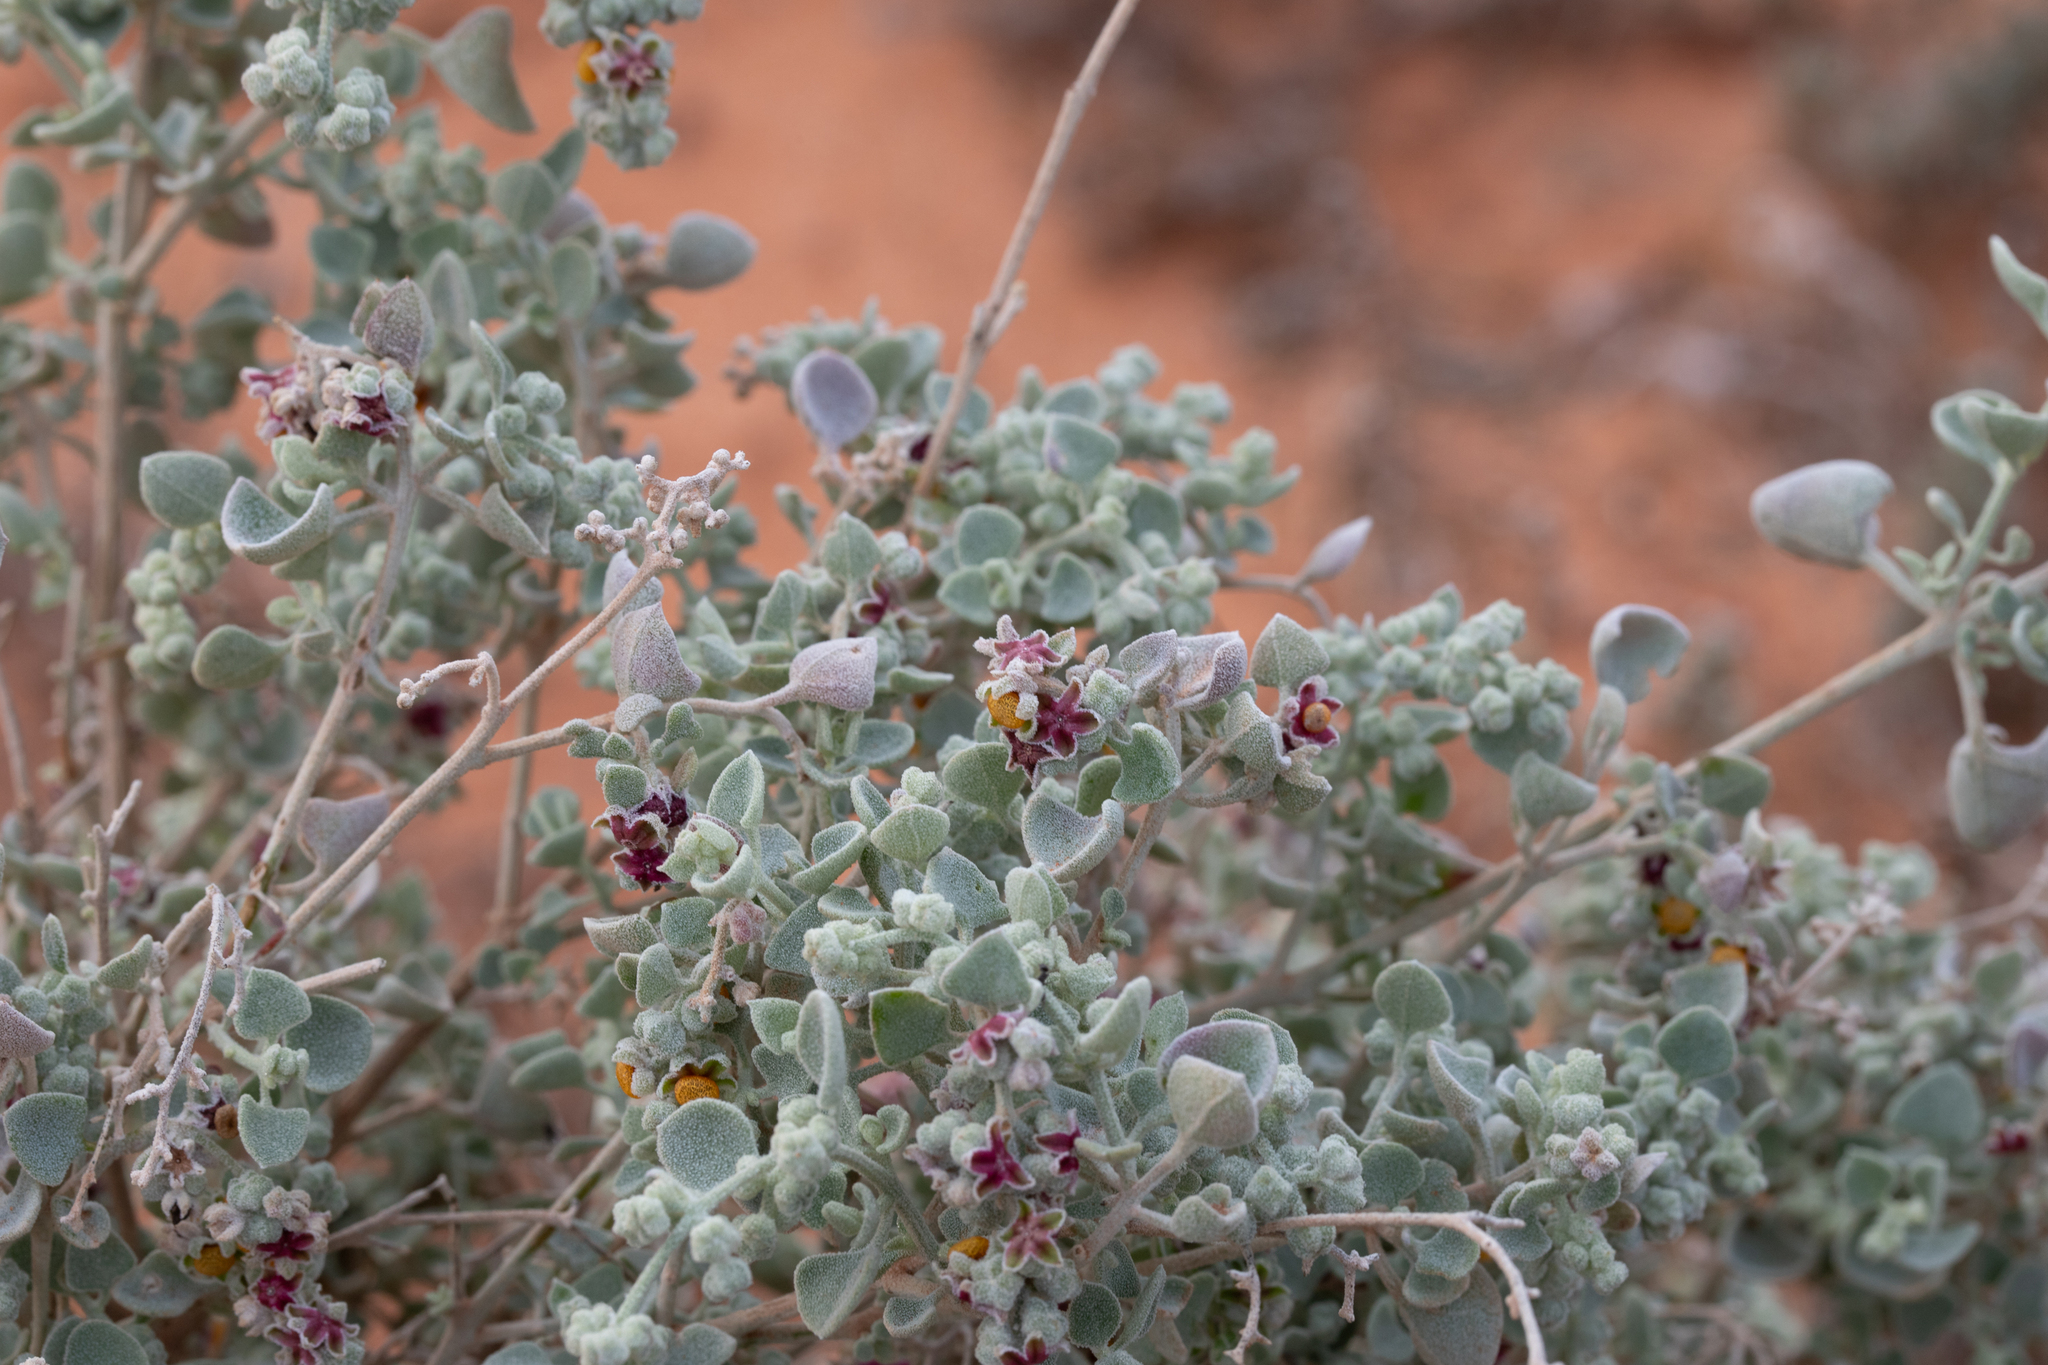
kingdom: Plantae
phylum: Tracheophyta
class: Magnoliopsida
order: Caryophyllales
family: Amaranthaceae
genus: Chenopodium
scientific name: Chenopodium curvispicatum
